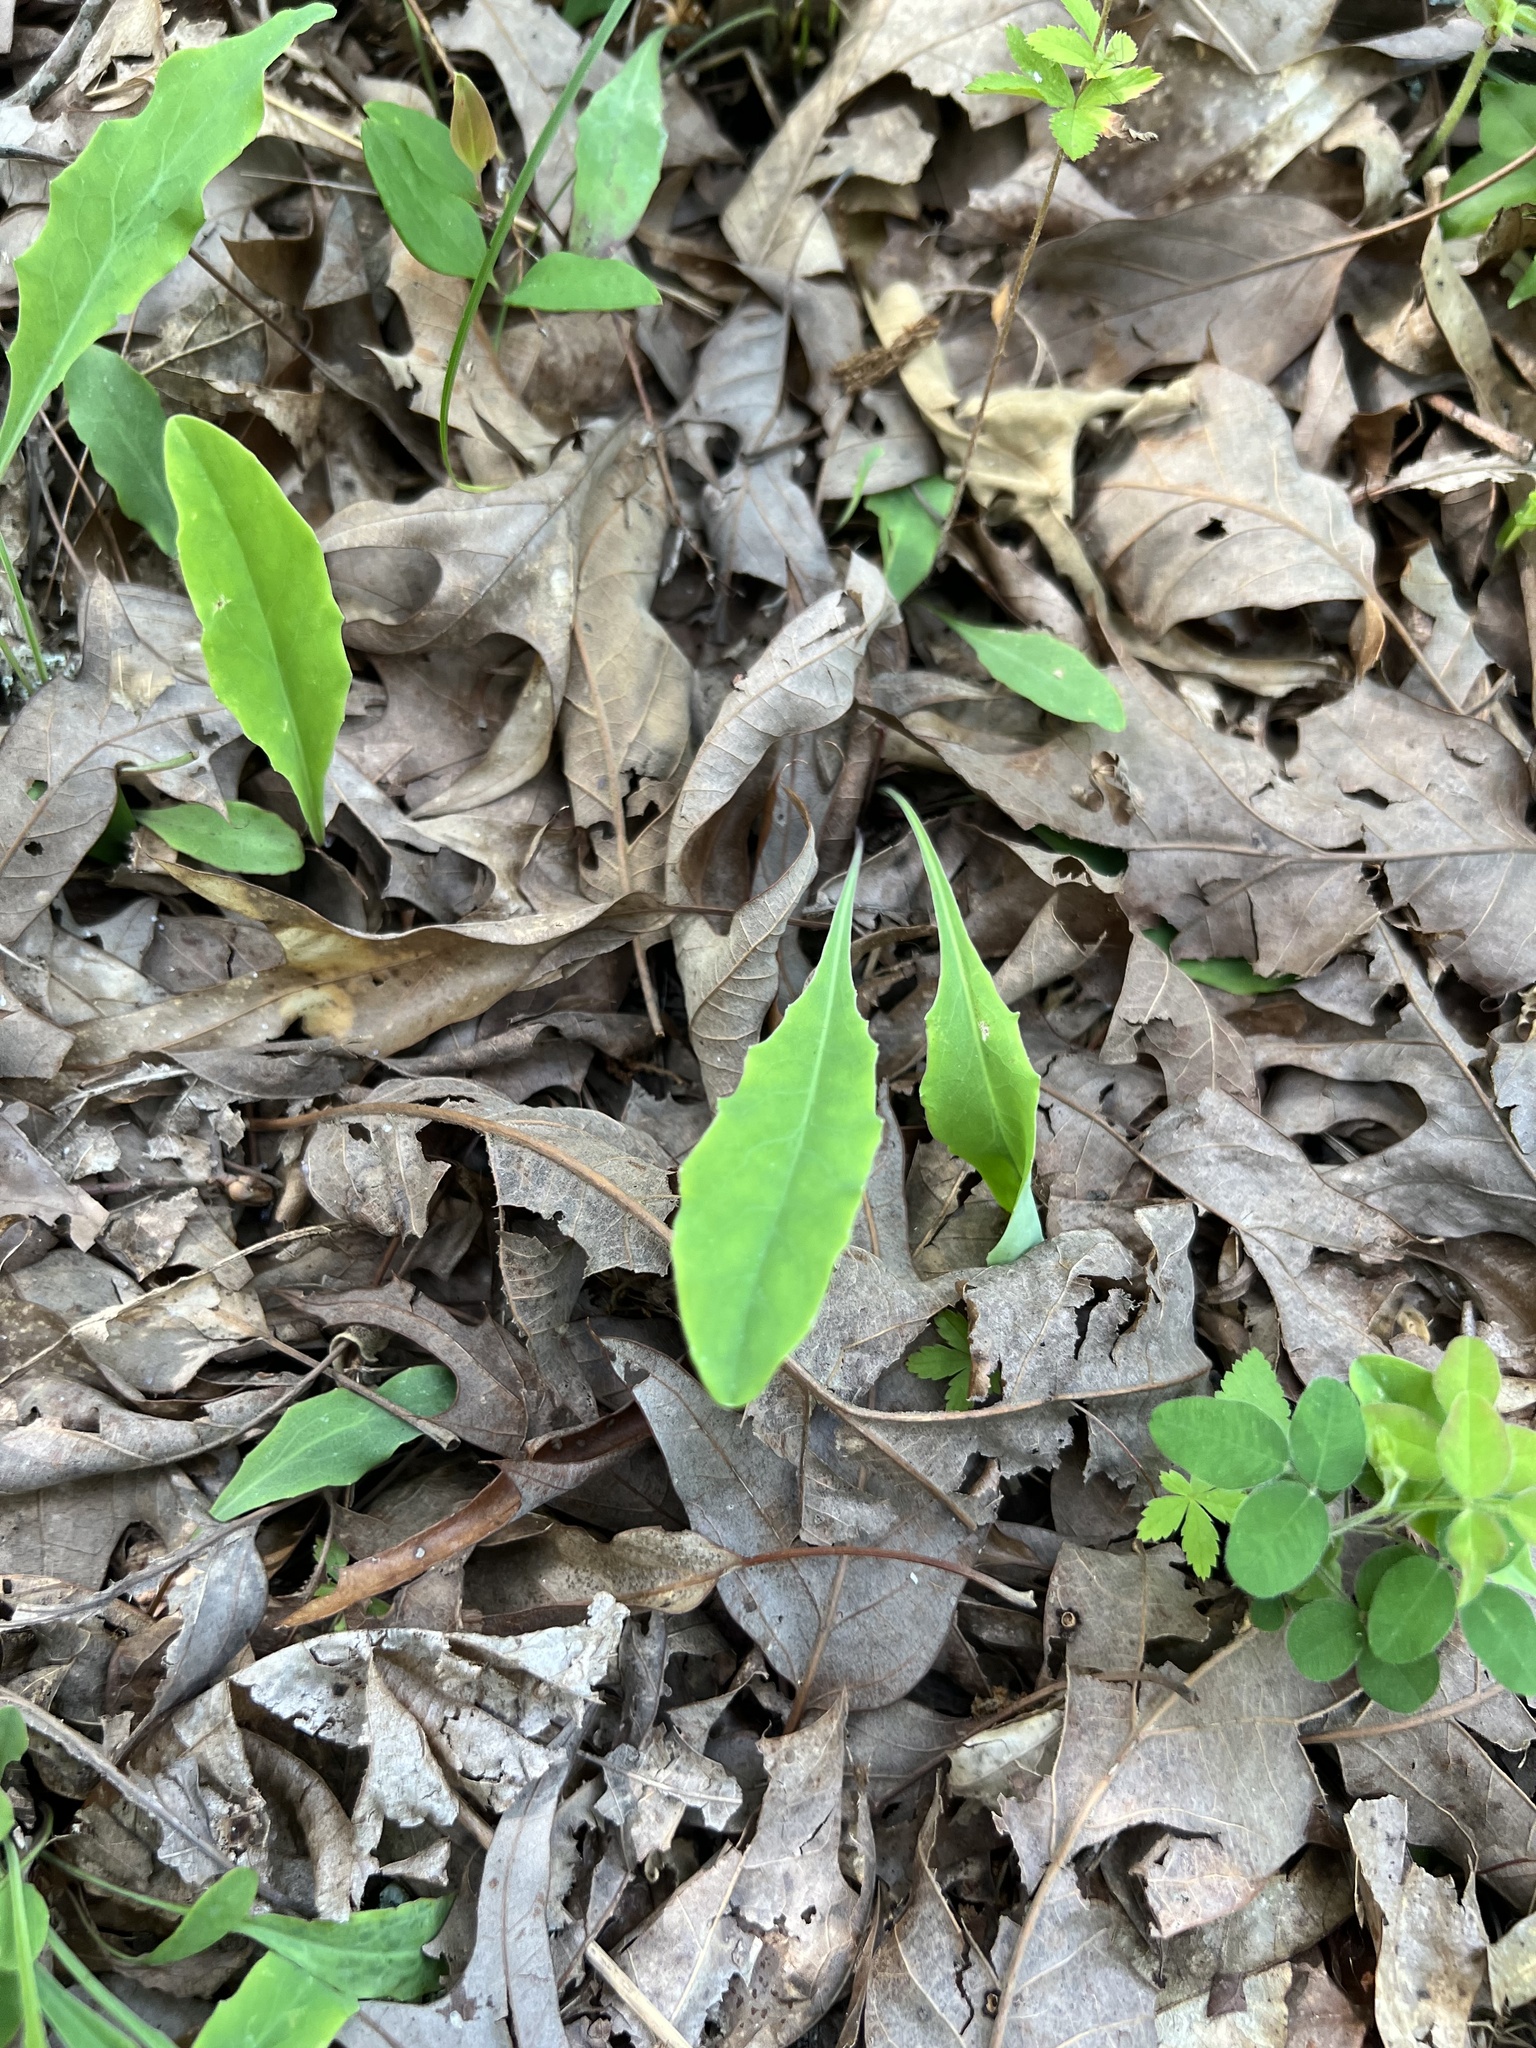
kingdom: Plantae
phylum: Tracheophyta
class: Magnoliopsida
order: Asterales
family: Asteraceae
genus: Krigia
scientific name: Krigia biflora
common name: Orange dwarf-dandelion
